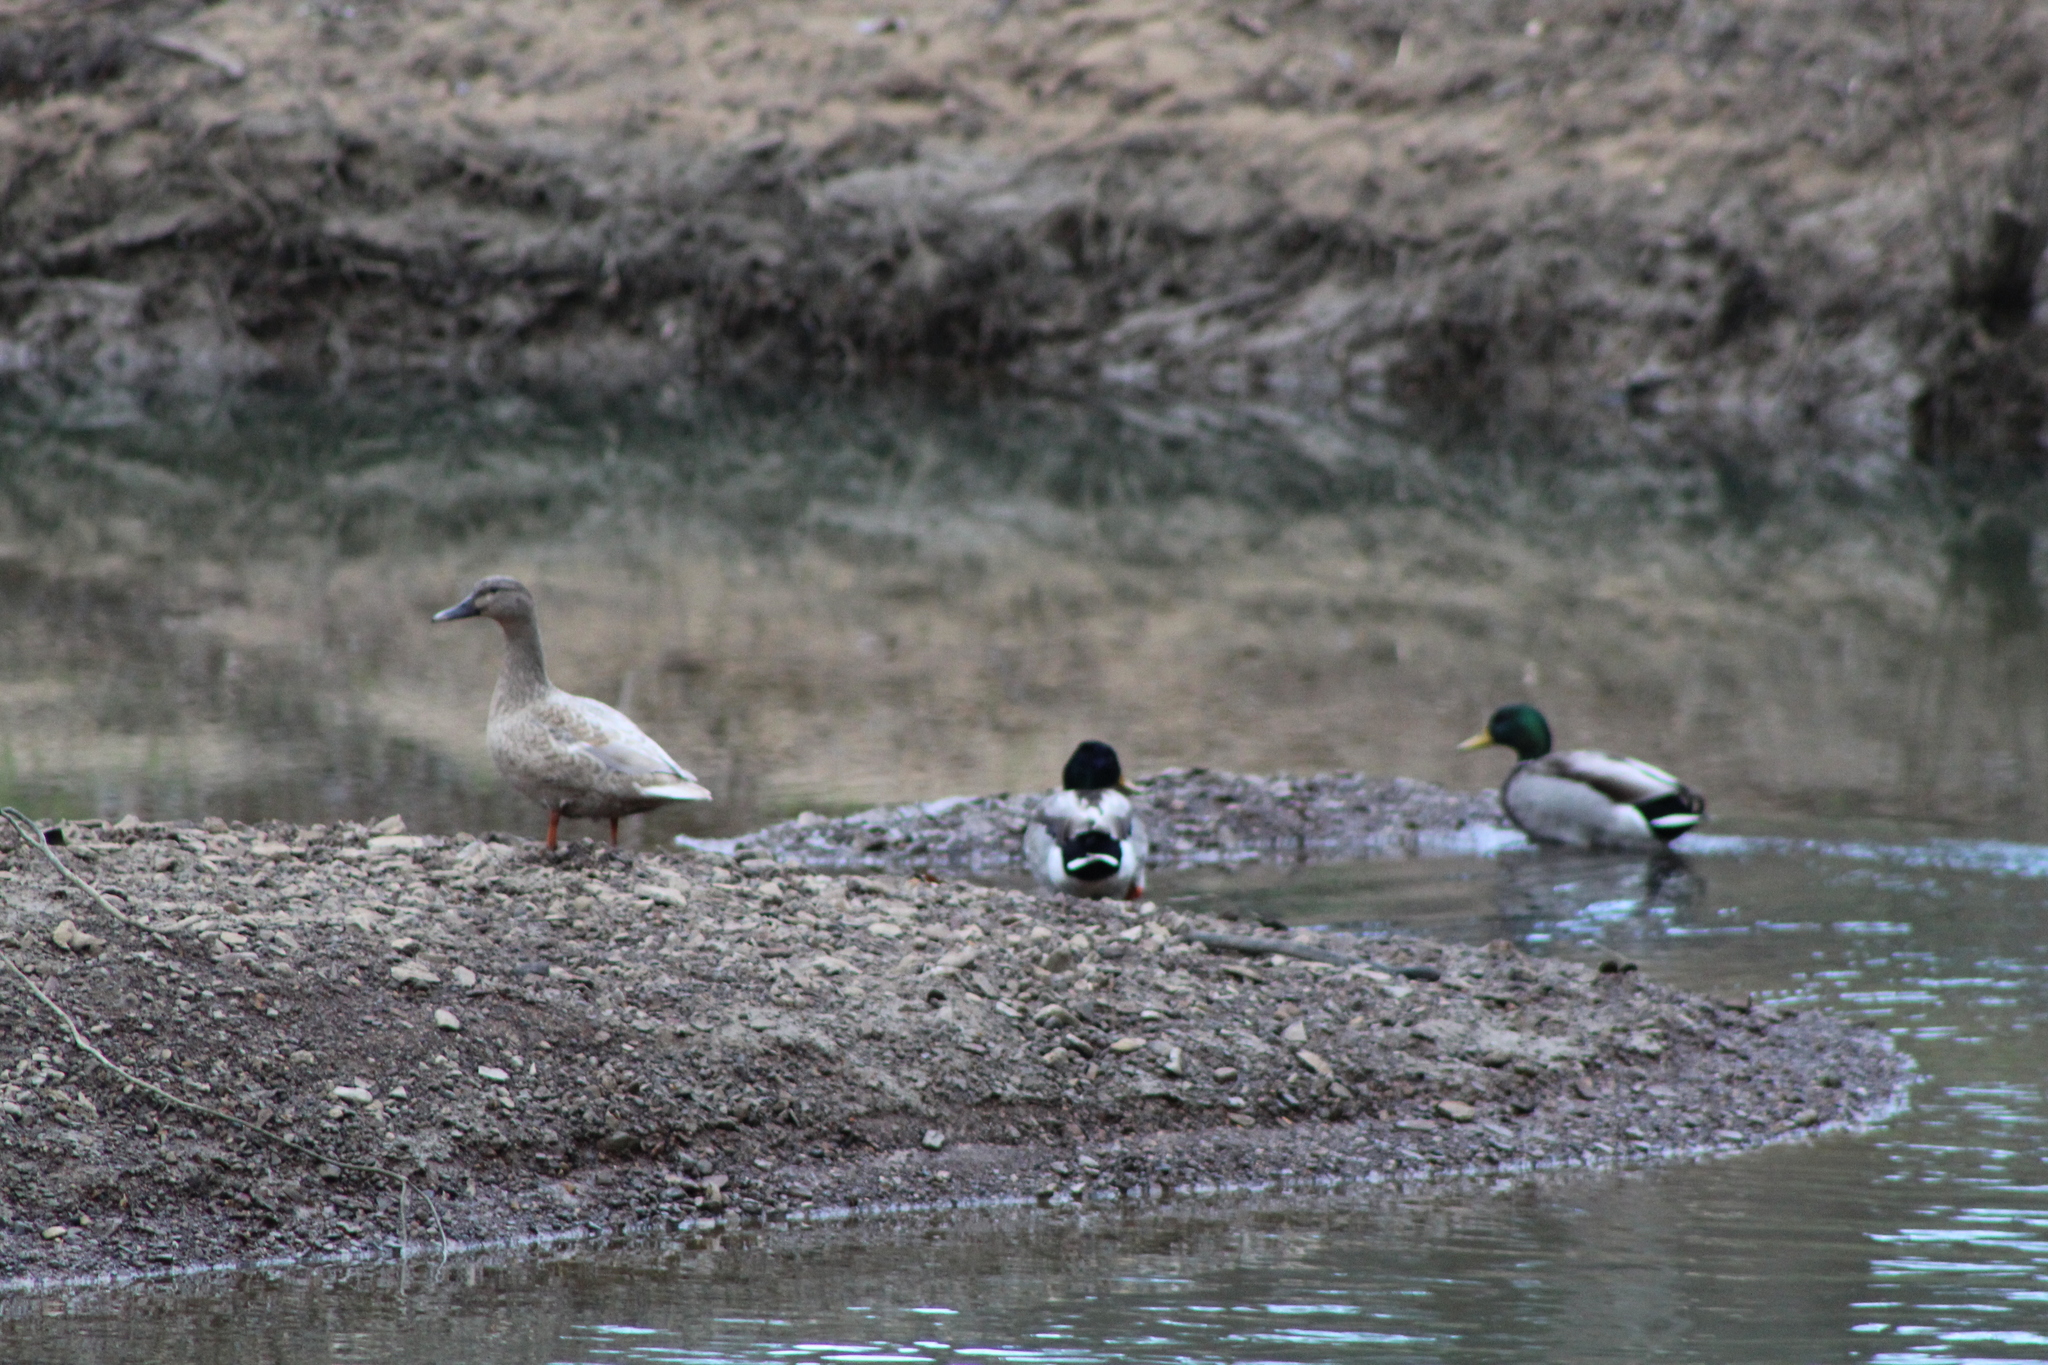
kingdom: Animalia
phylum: Chordata
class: Aves
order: Anseriformes
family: Anatidae
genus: Anas
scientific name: Anas platyrhynchos
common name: Mallard
